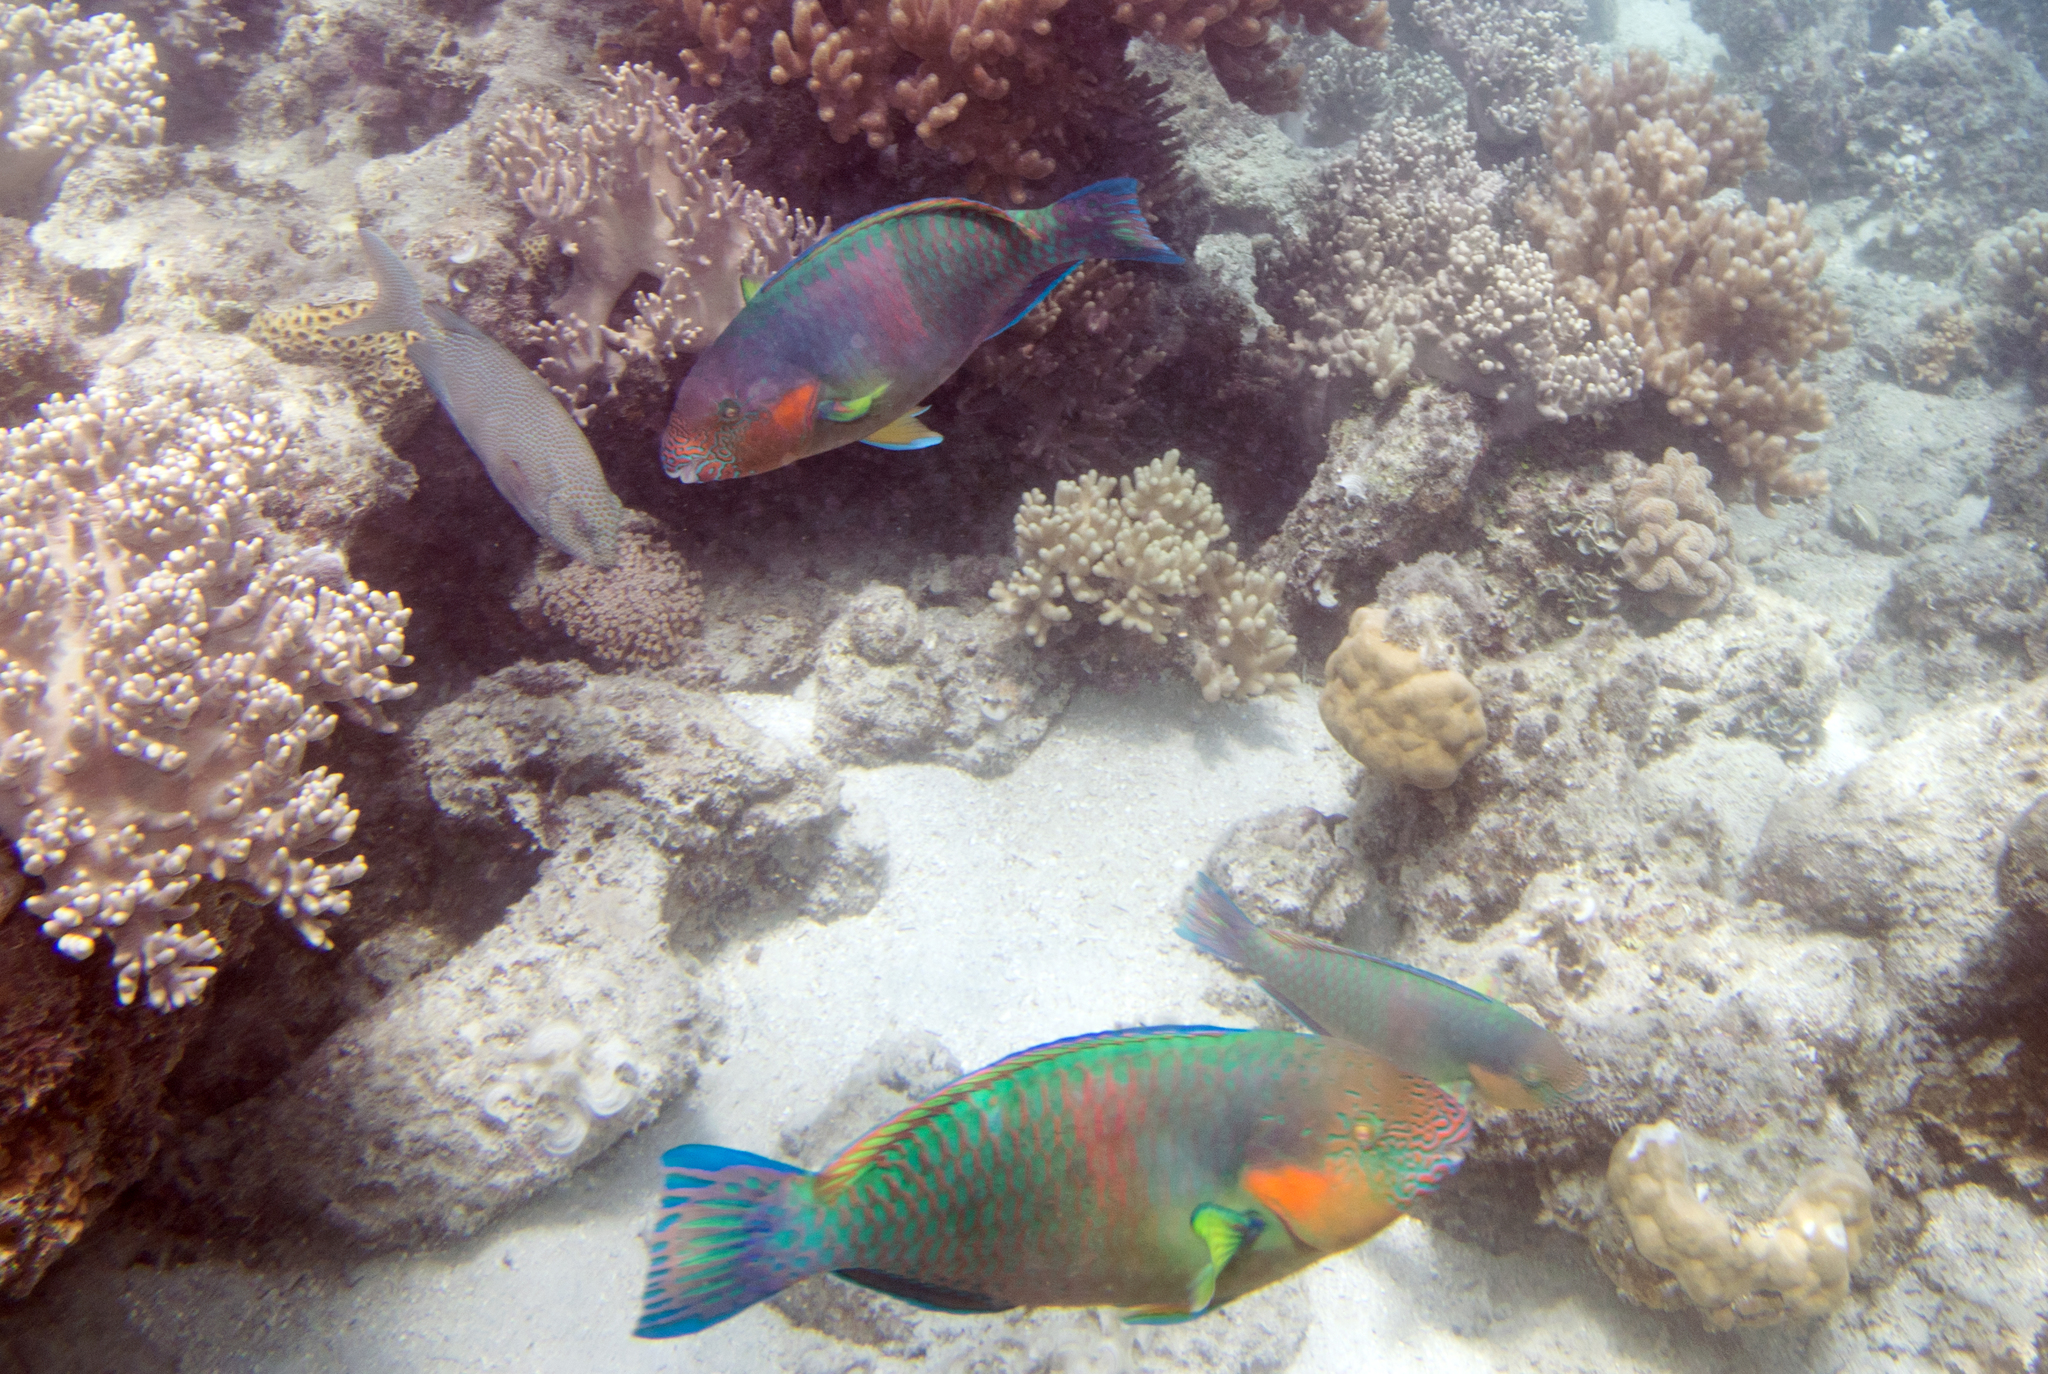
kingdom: Animalia
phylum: Chordata
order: Perciformes
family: Scaridae
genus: Scarus
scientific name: Scarus rivulatus
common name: Surf parrotfish
